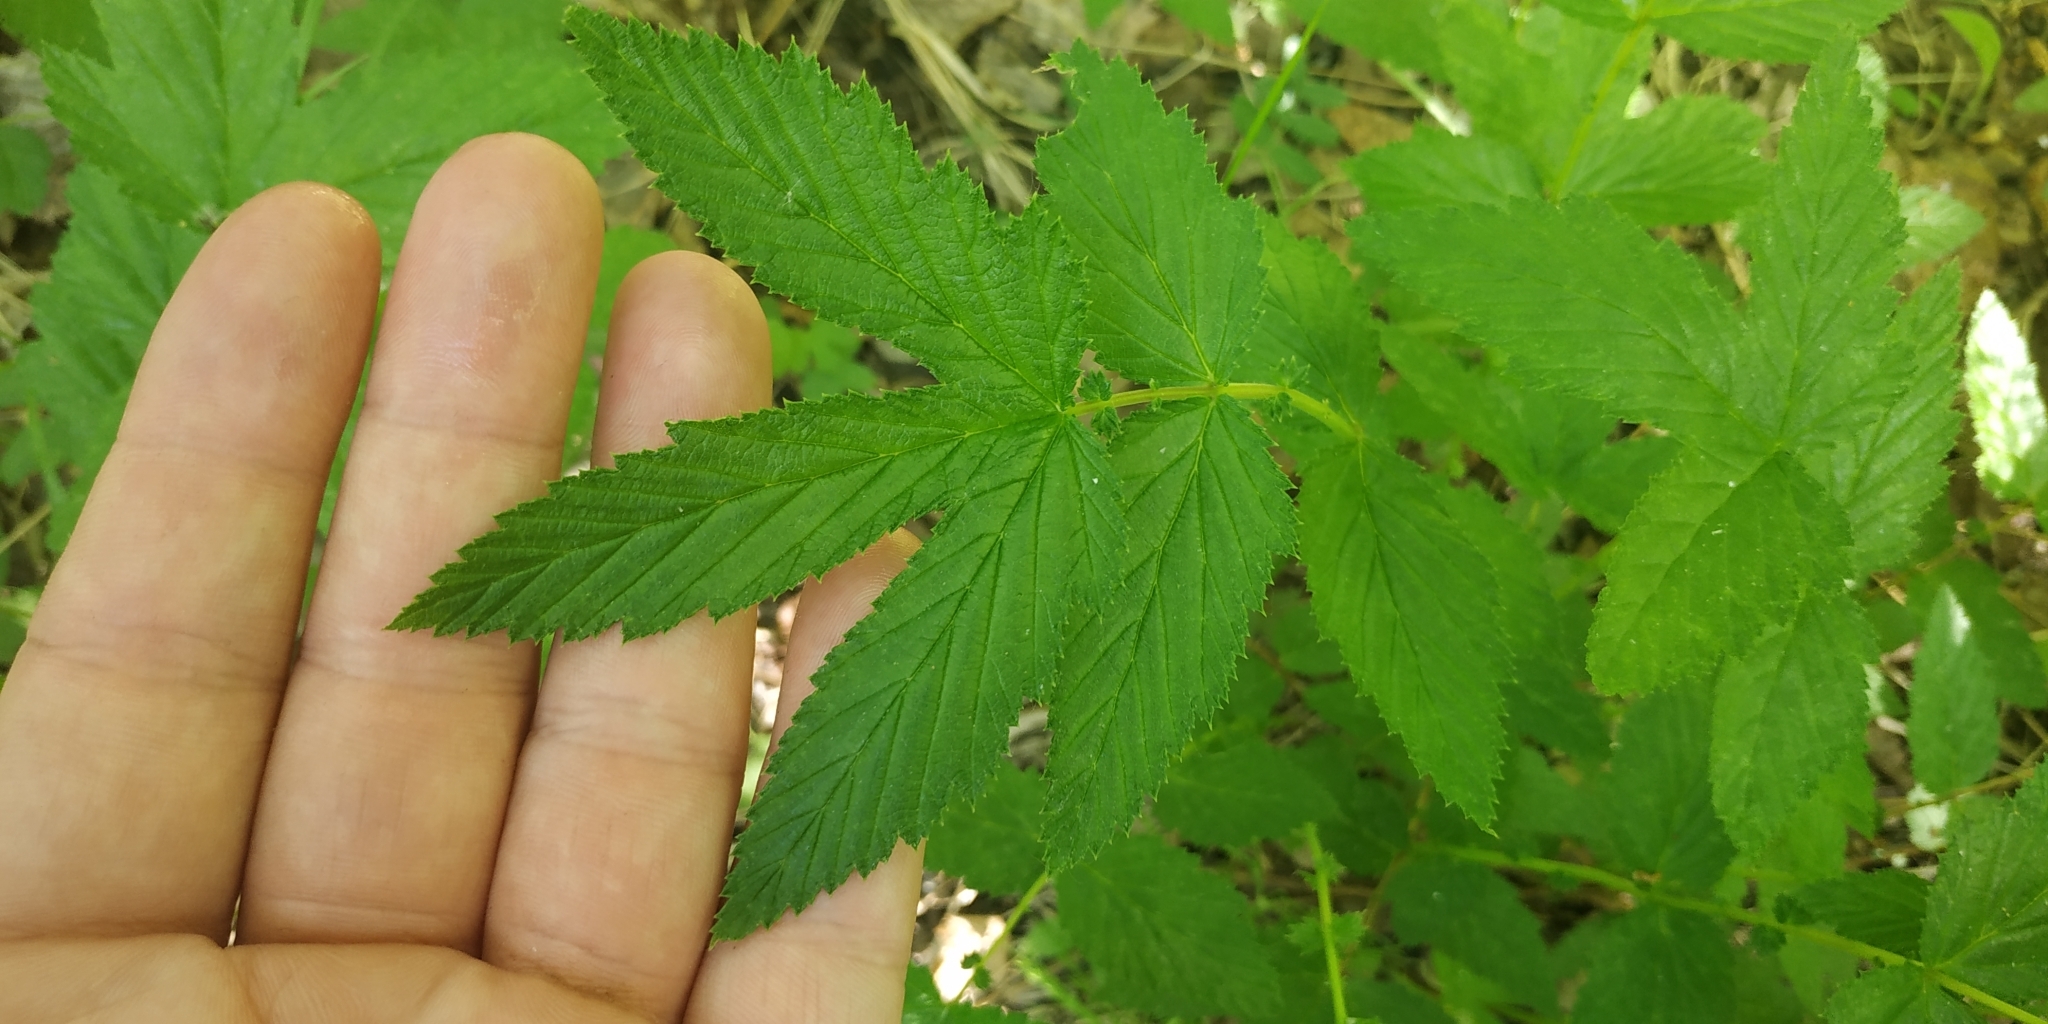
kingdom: Plantae
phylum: Tracheophyta
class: Magnoliopsida
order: Rosales
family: Rosaceae
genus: Filipendula
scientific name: Filipendula ulmaria
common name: Meadowsweet
